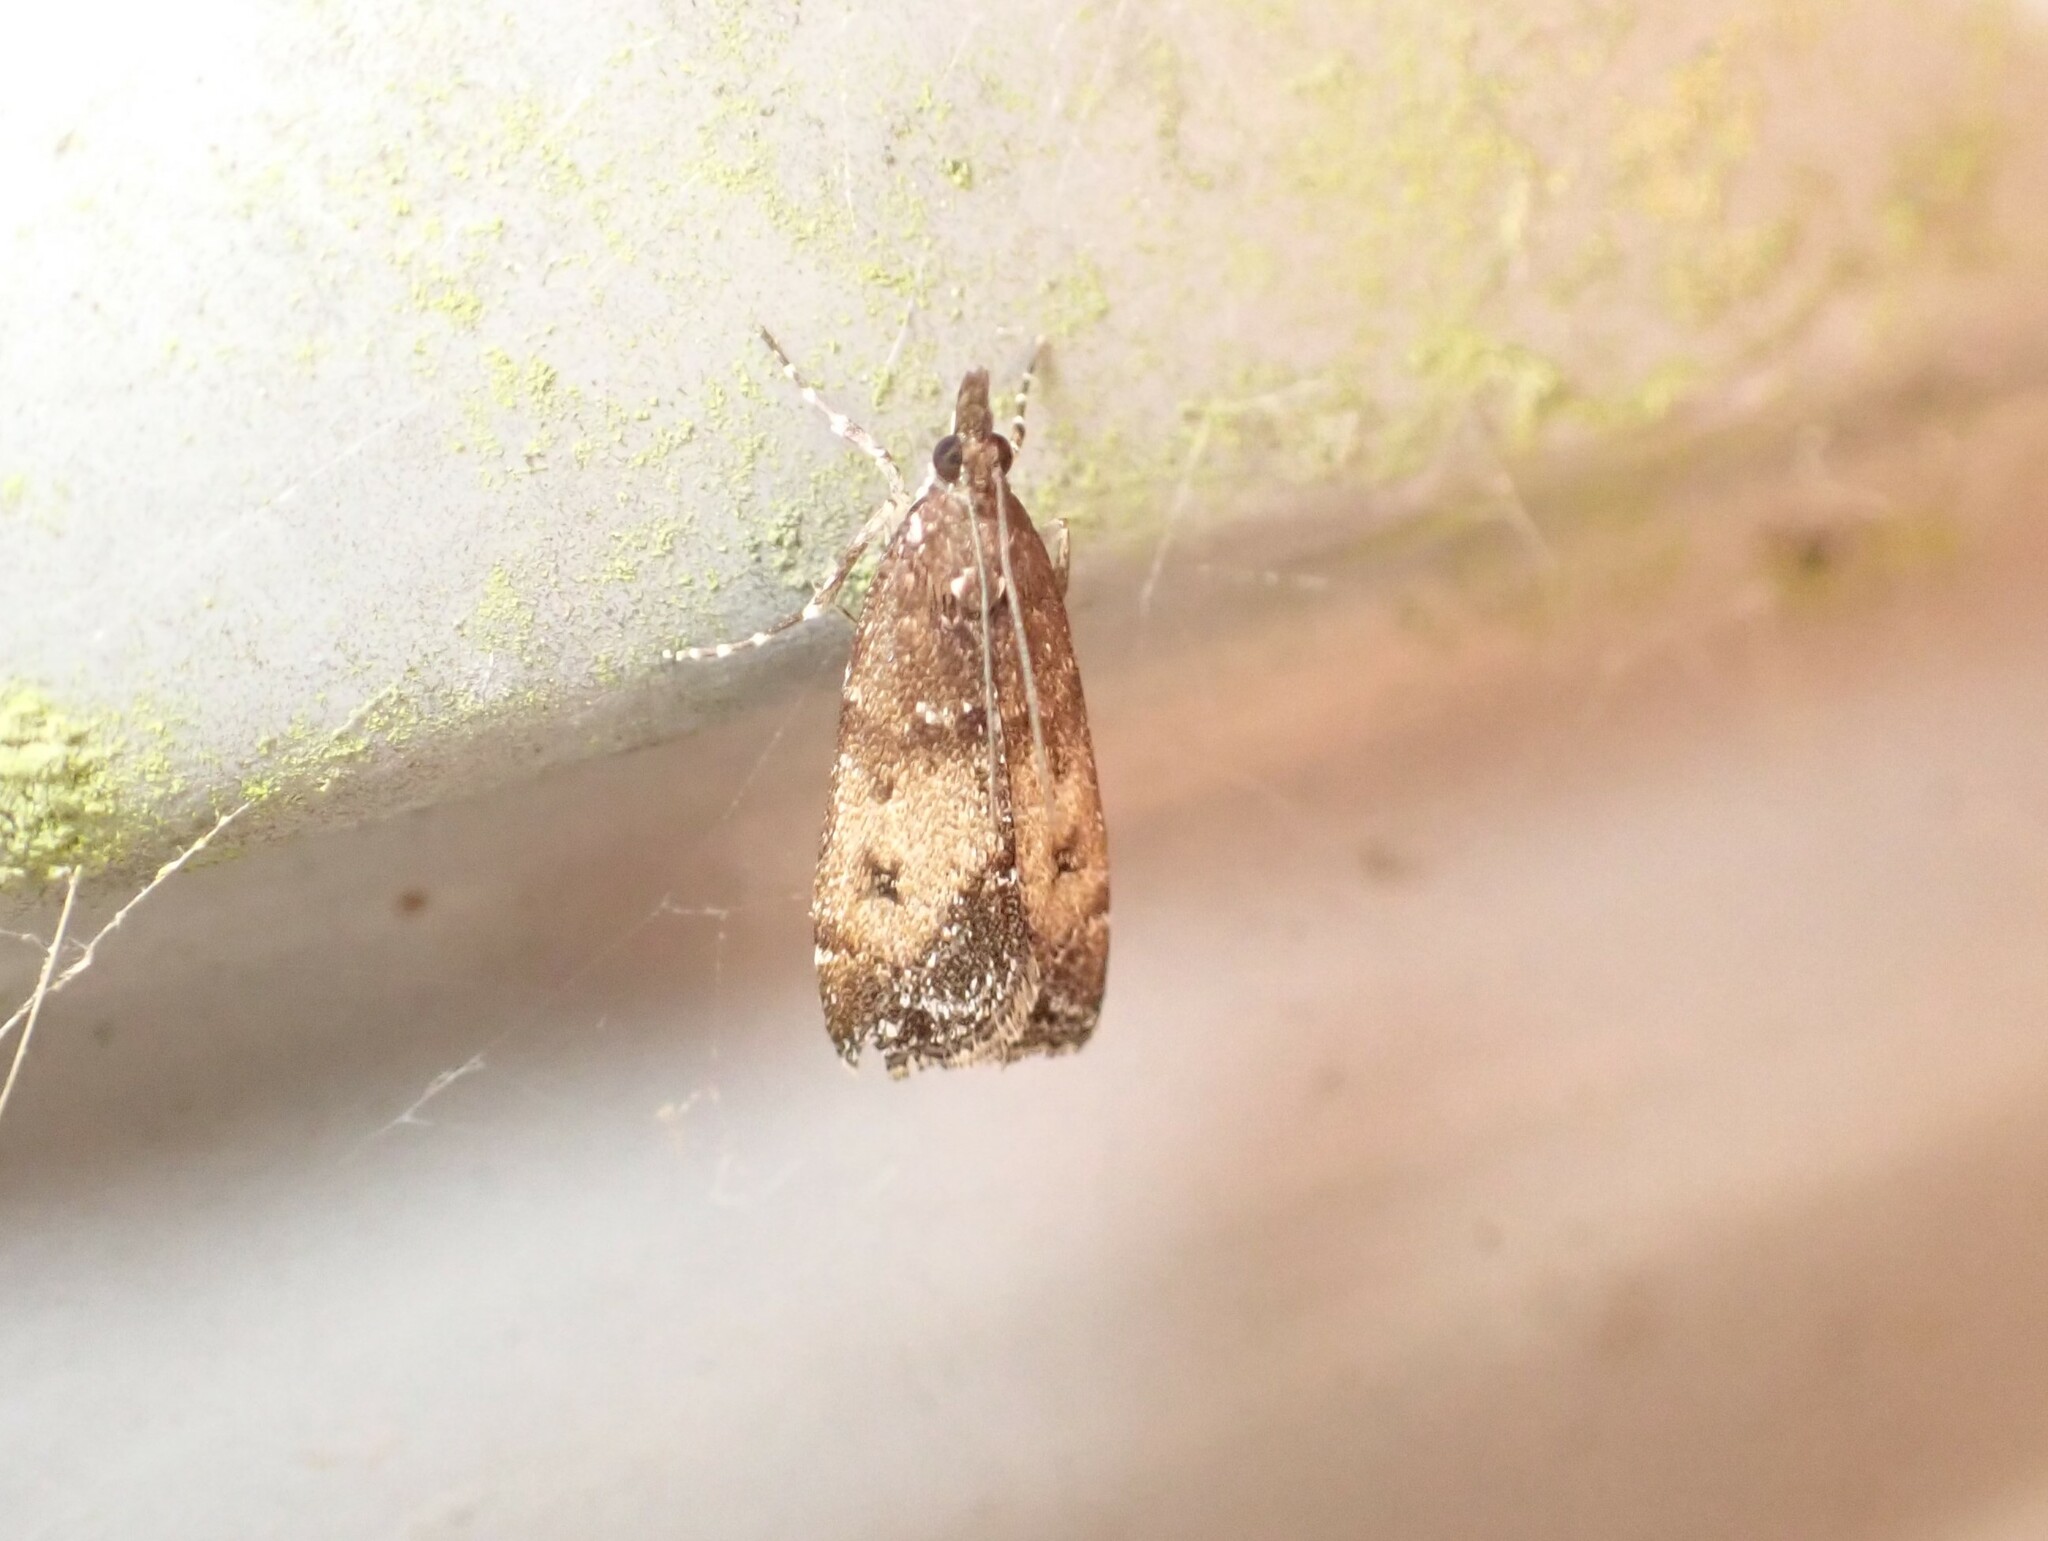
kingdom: Animalia
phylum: Arthropoda
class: Insecta
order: Lepidoptera
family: Crambidae
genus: Eudonia
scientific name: Eudonia asterisca
